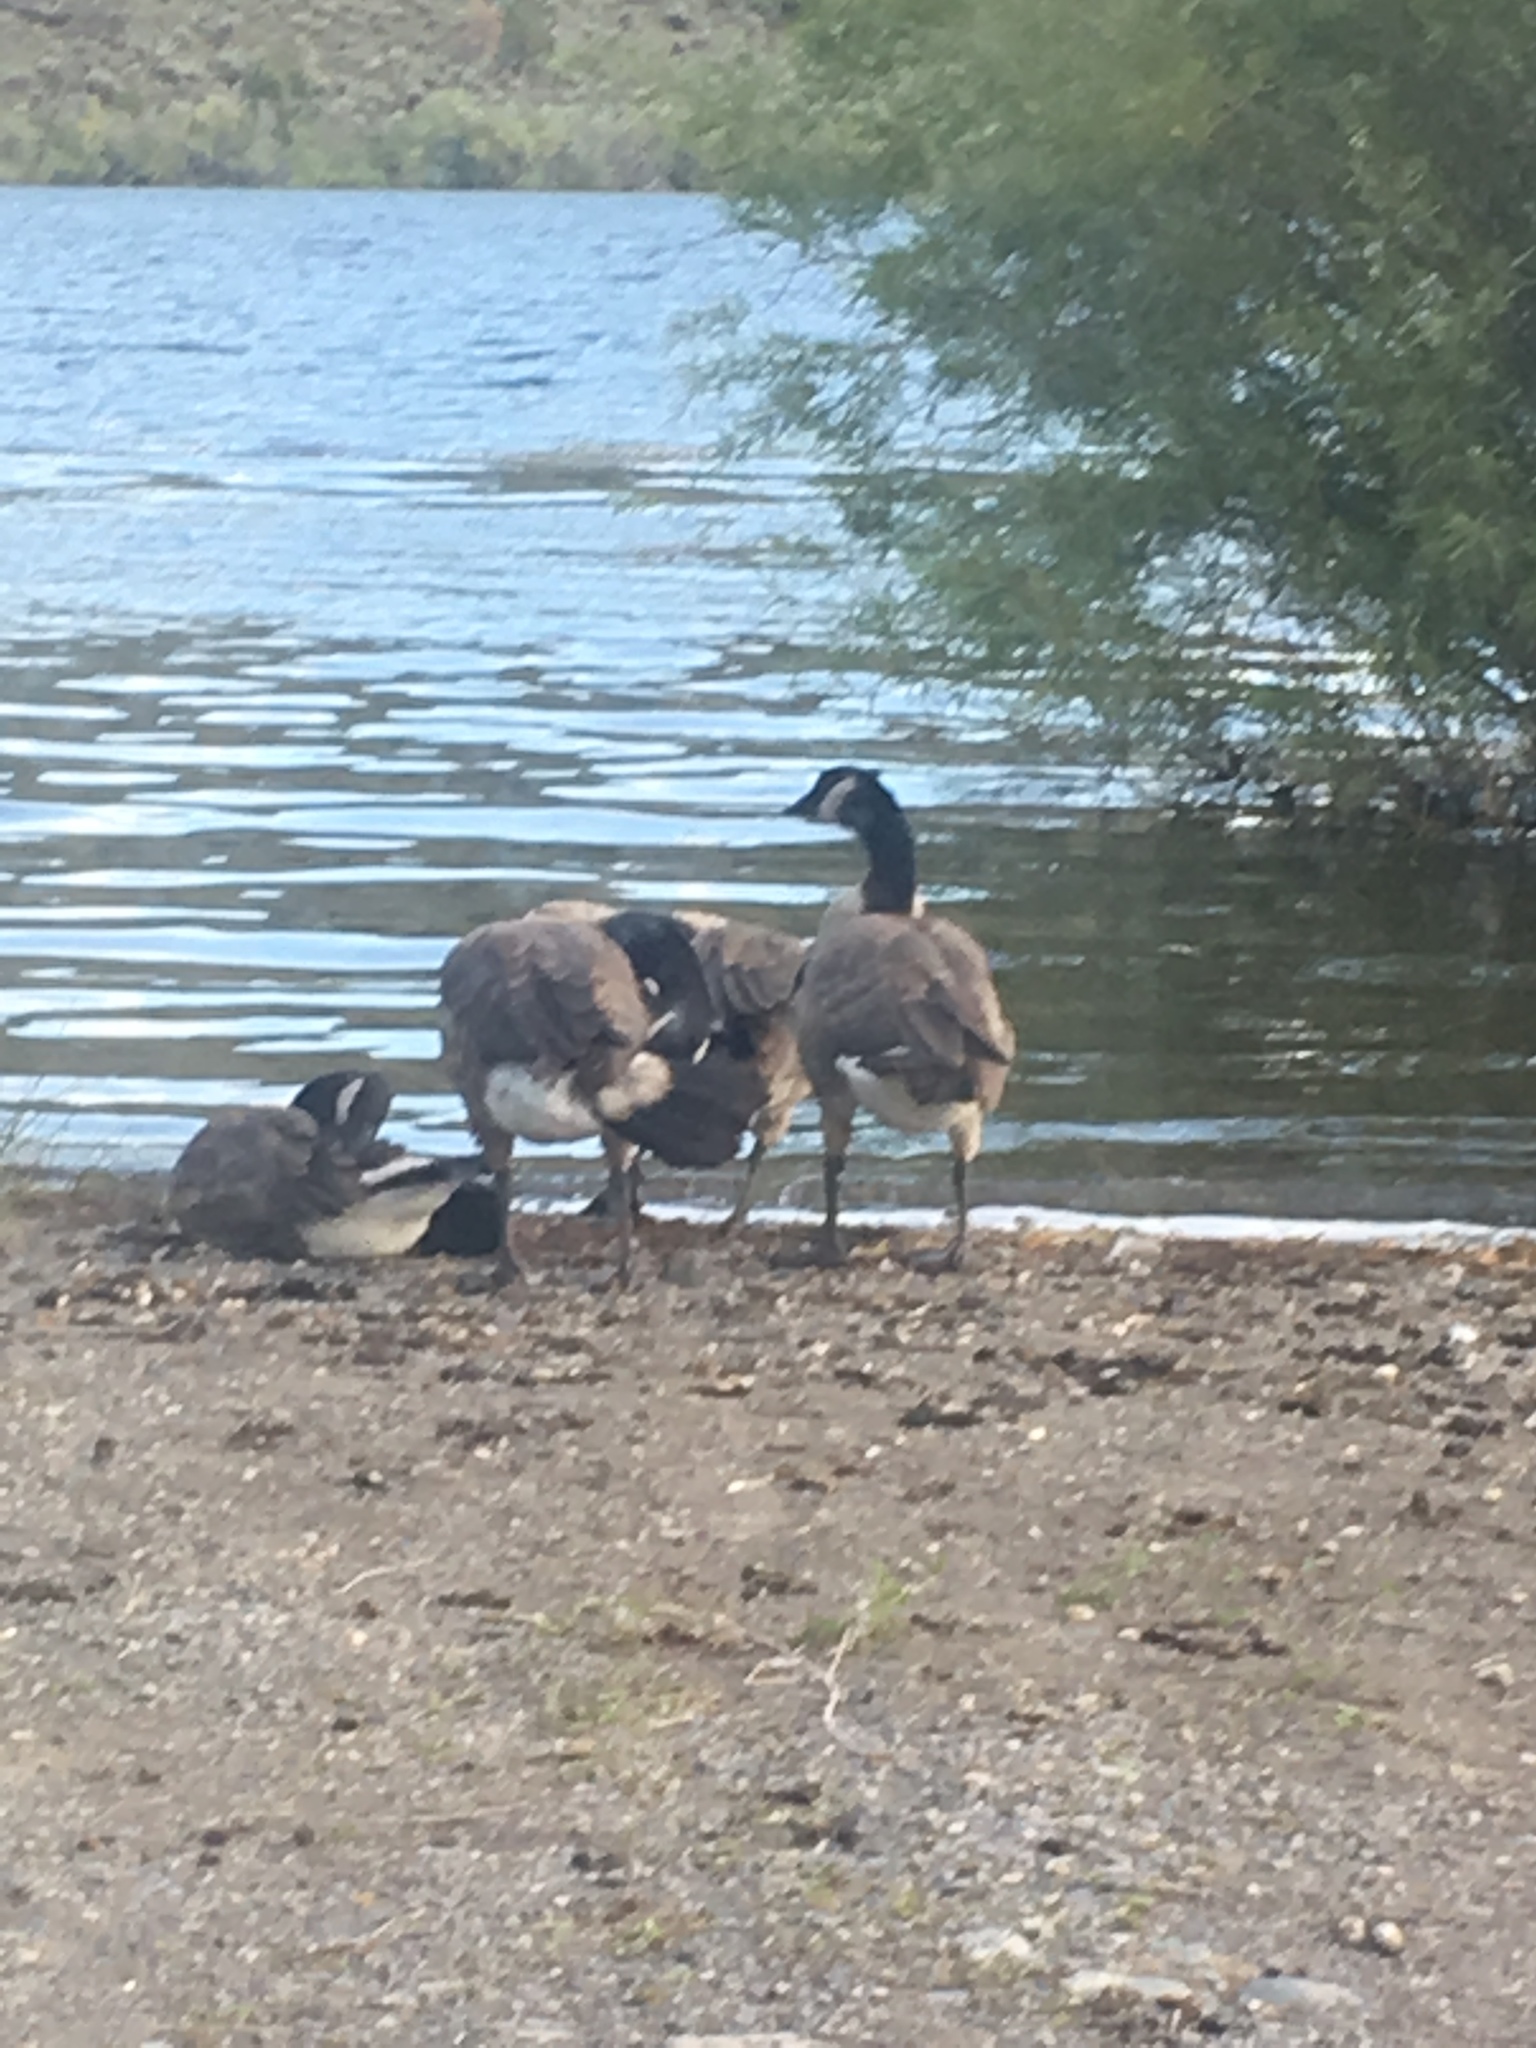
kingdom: Animalia
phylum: Chordata
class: Aves
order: Anseriformes
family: Anatidae
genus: Branta
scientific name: Branta canadensis
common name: Canada goose
